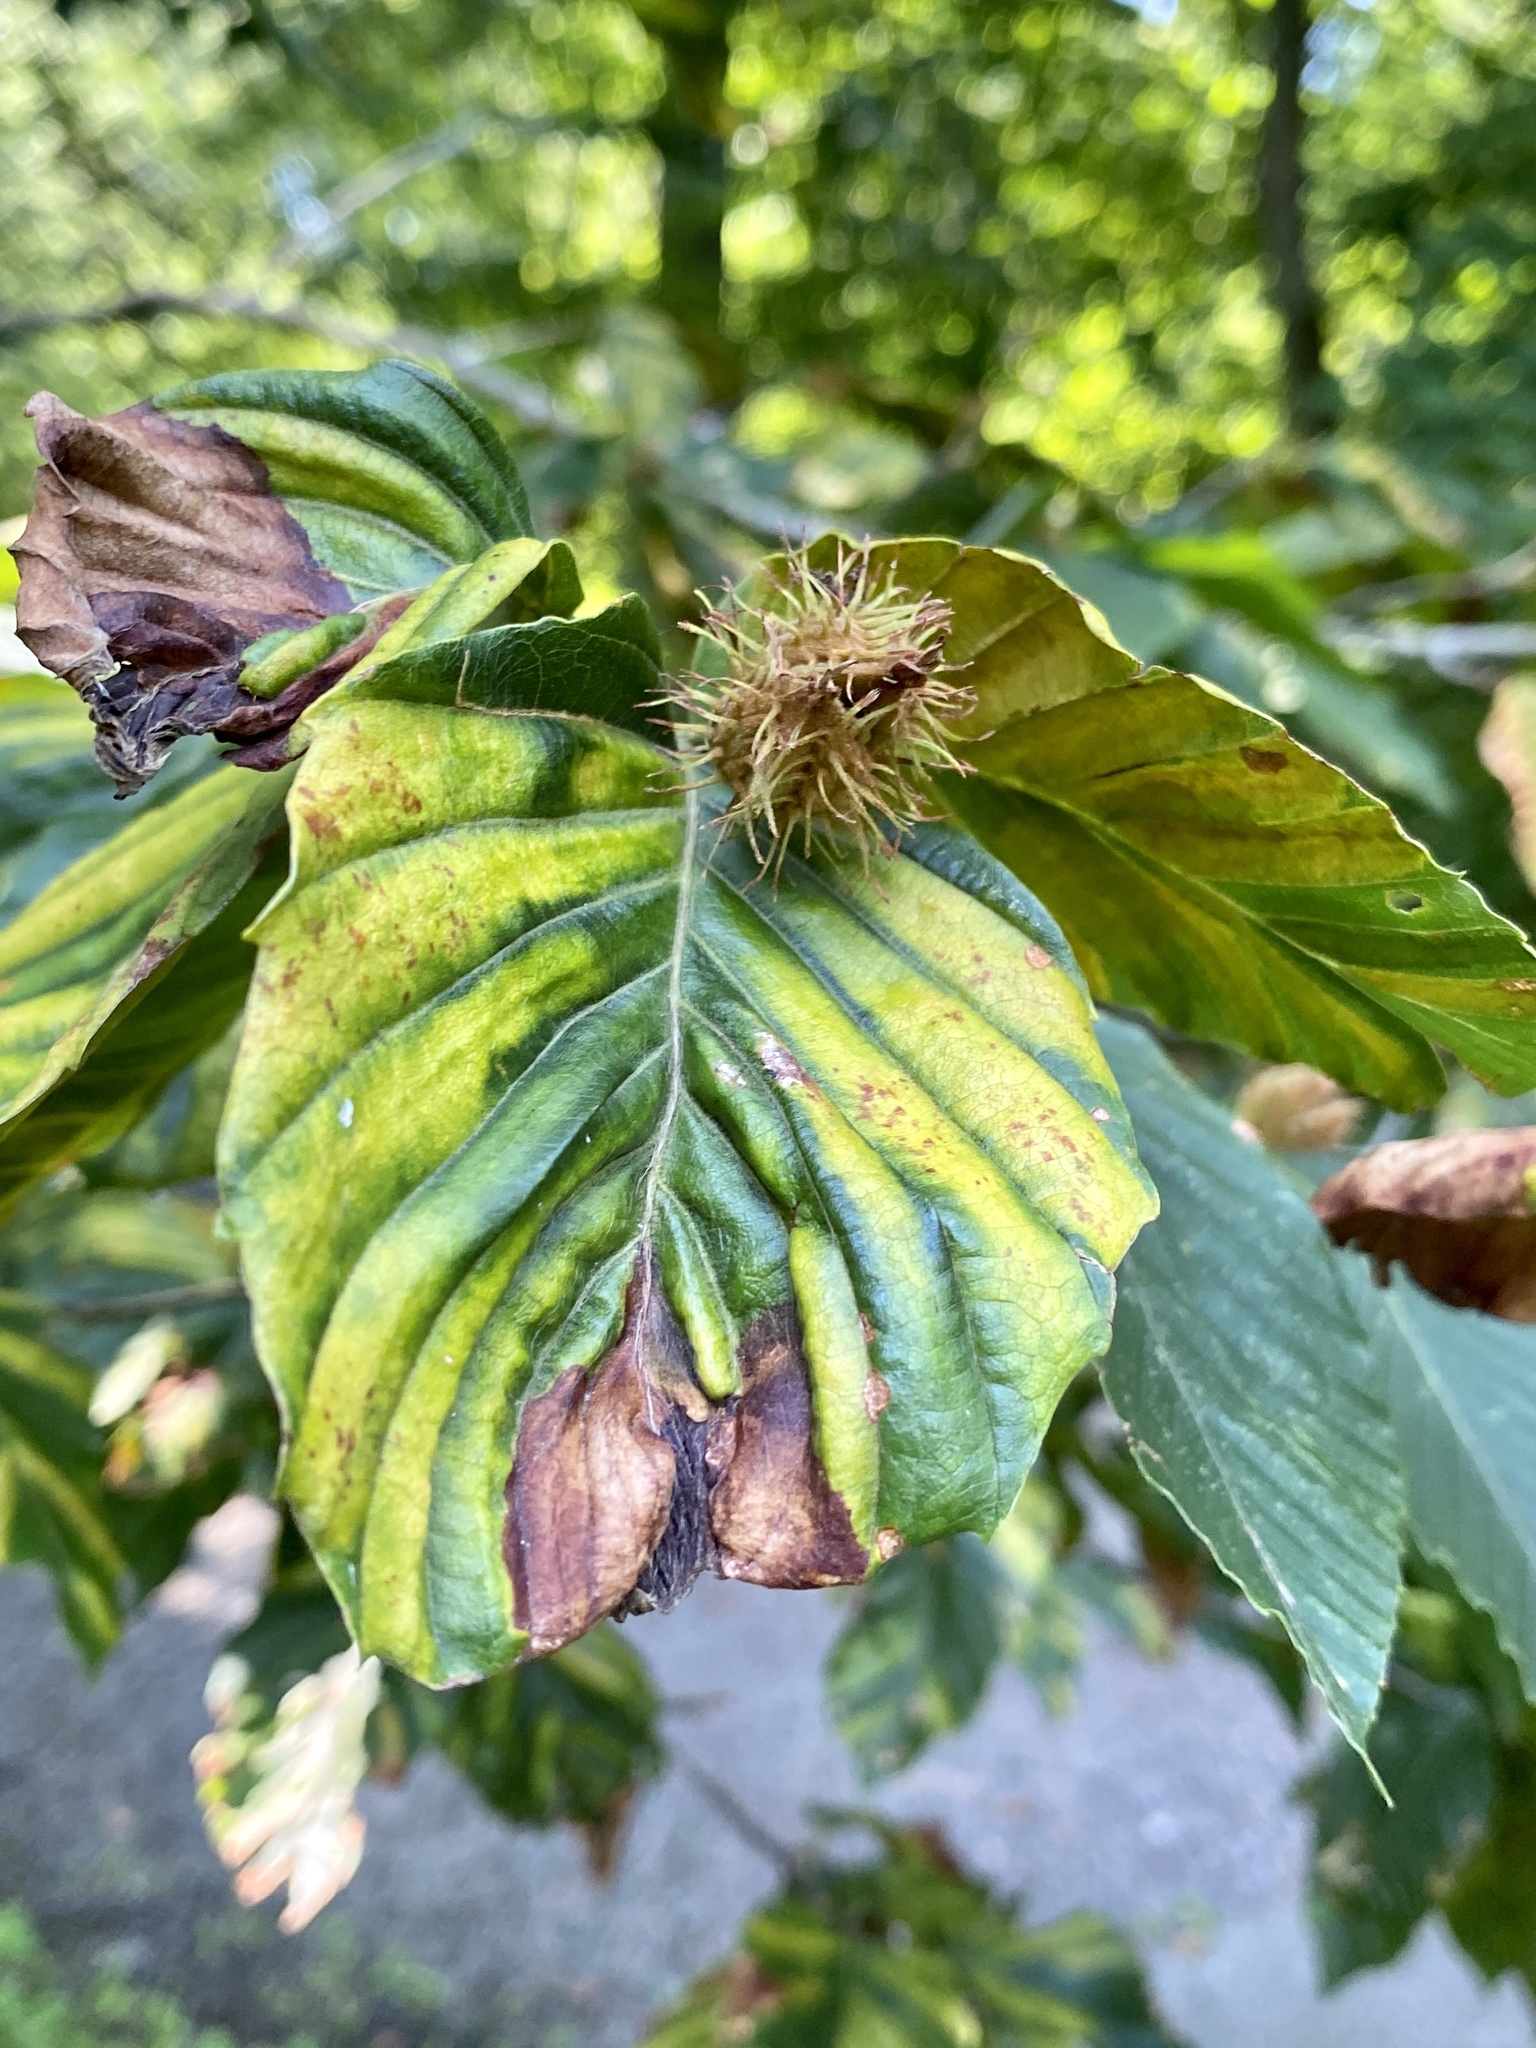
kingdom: Animalia
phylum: Nematoda
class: Chromadorea
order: Rhabditida
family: Anguinidae
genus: Litylenchus
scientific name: Litylenchus crenatae
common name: Beech leaf disease
